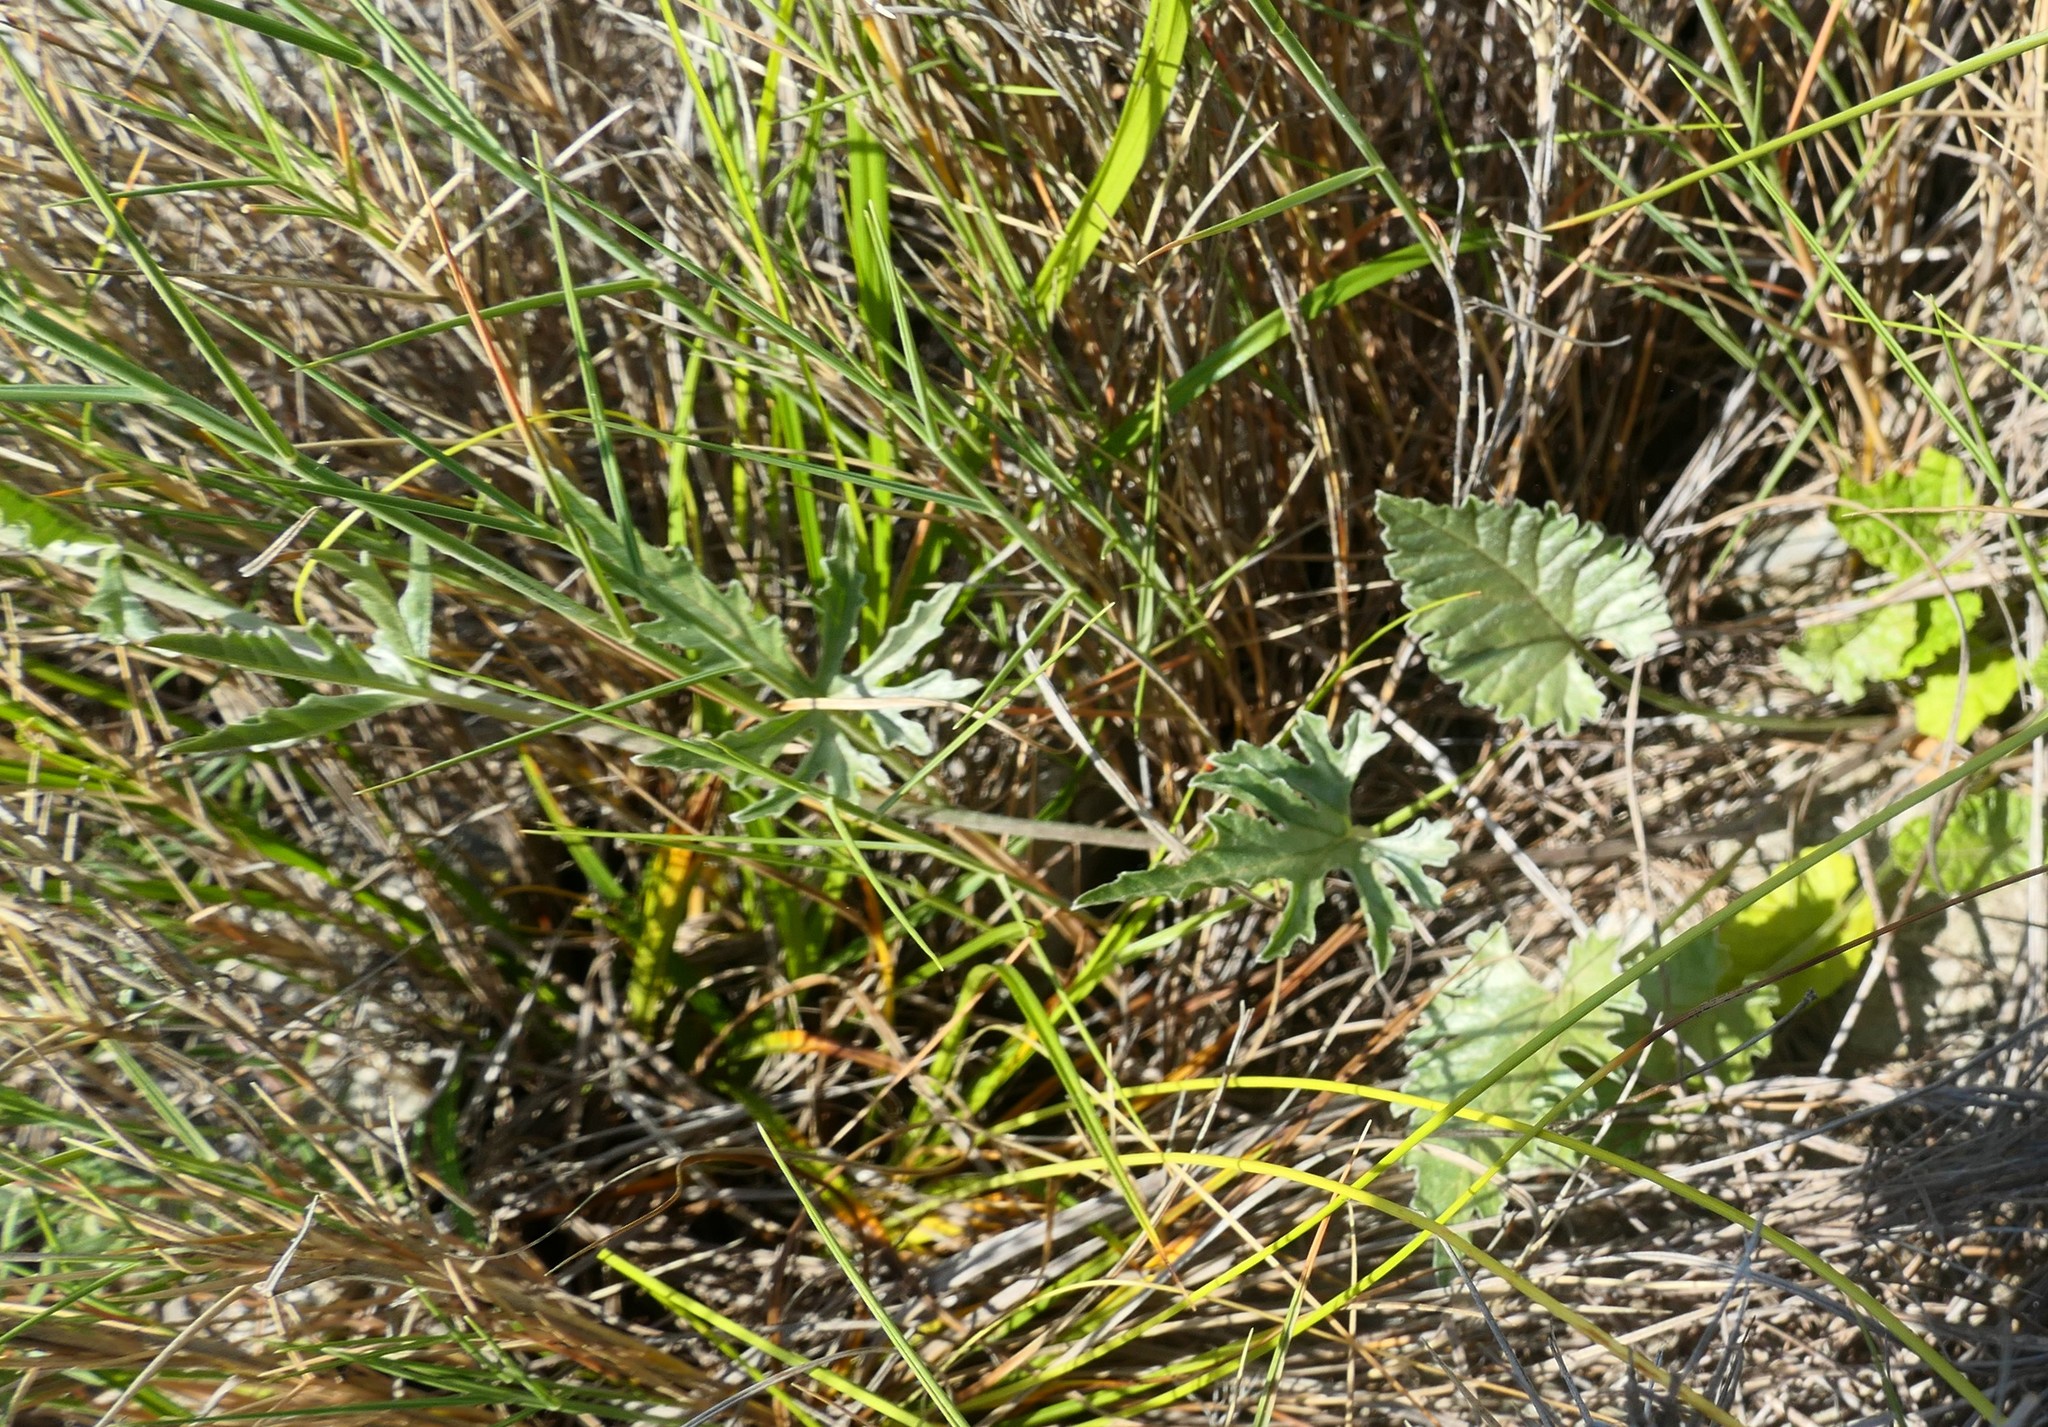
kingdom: Plantae
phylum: Tracheophyta
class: Magnoliopsida
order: Solanales
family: Convolvulaceae
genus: Convolvulus
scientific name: Convolvulus elegantissimus
